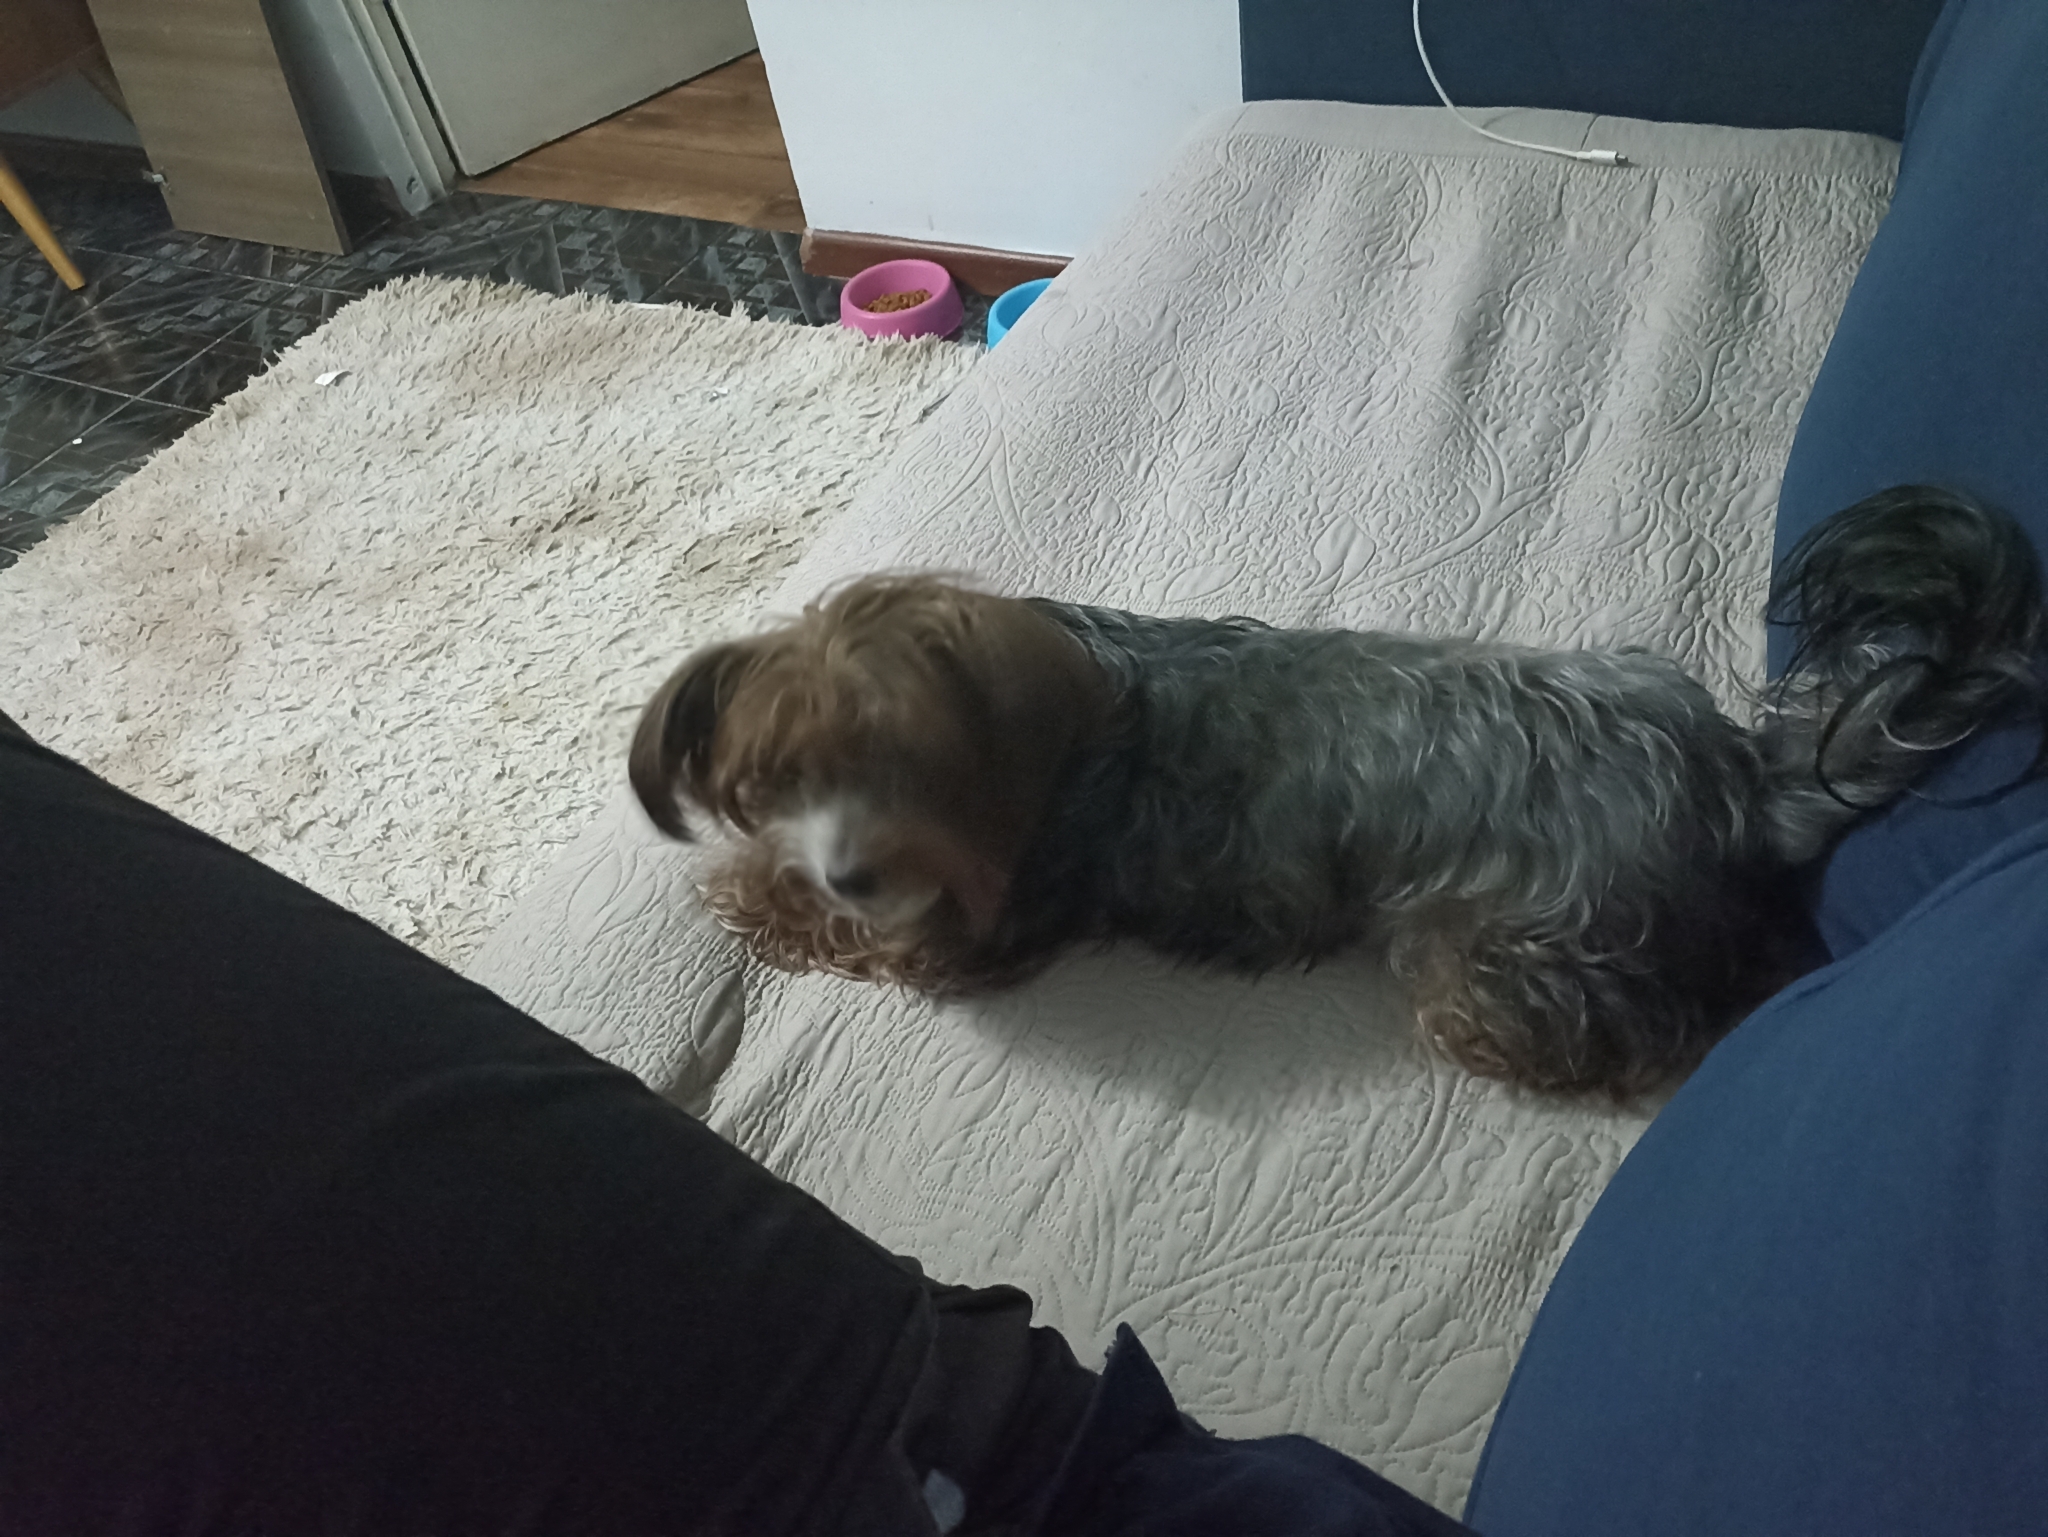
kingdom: Animalia
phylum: Chordata
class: Mammalia
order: Carnivora
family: Canidae
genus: Canis
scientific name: Canis lupus
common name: Gray wolf
